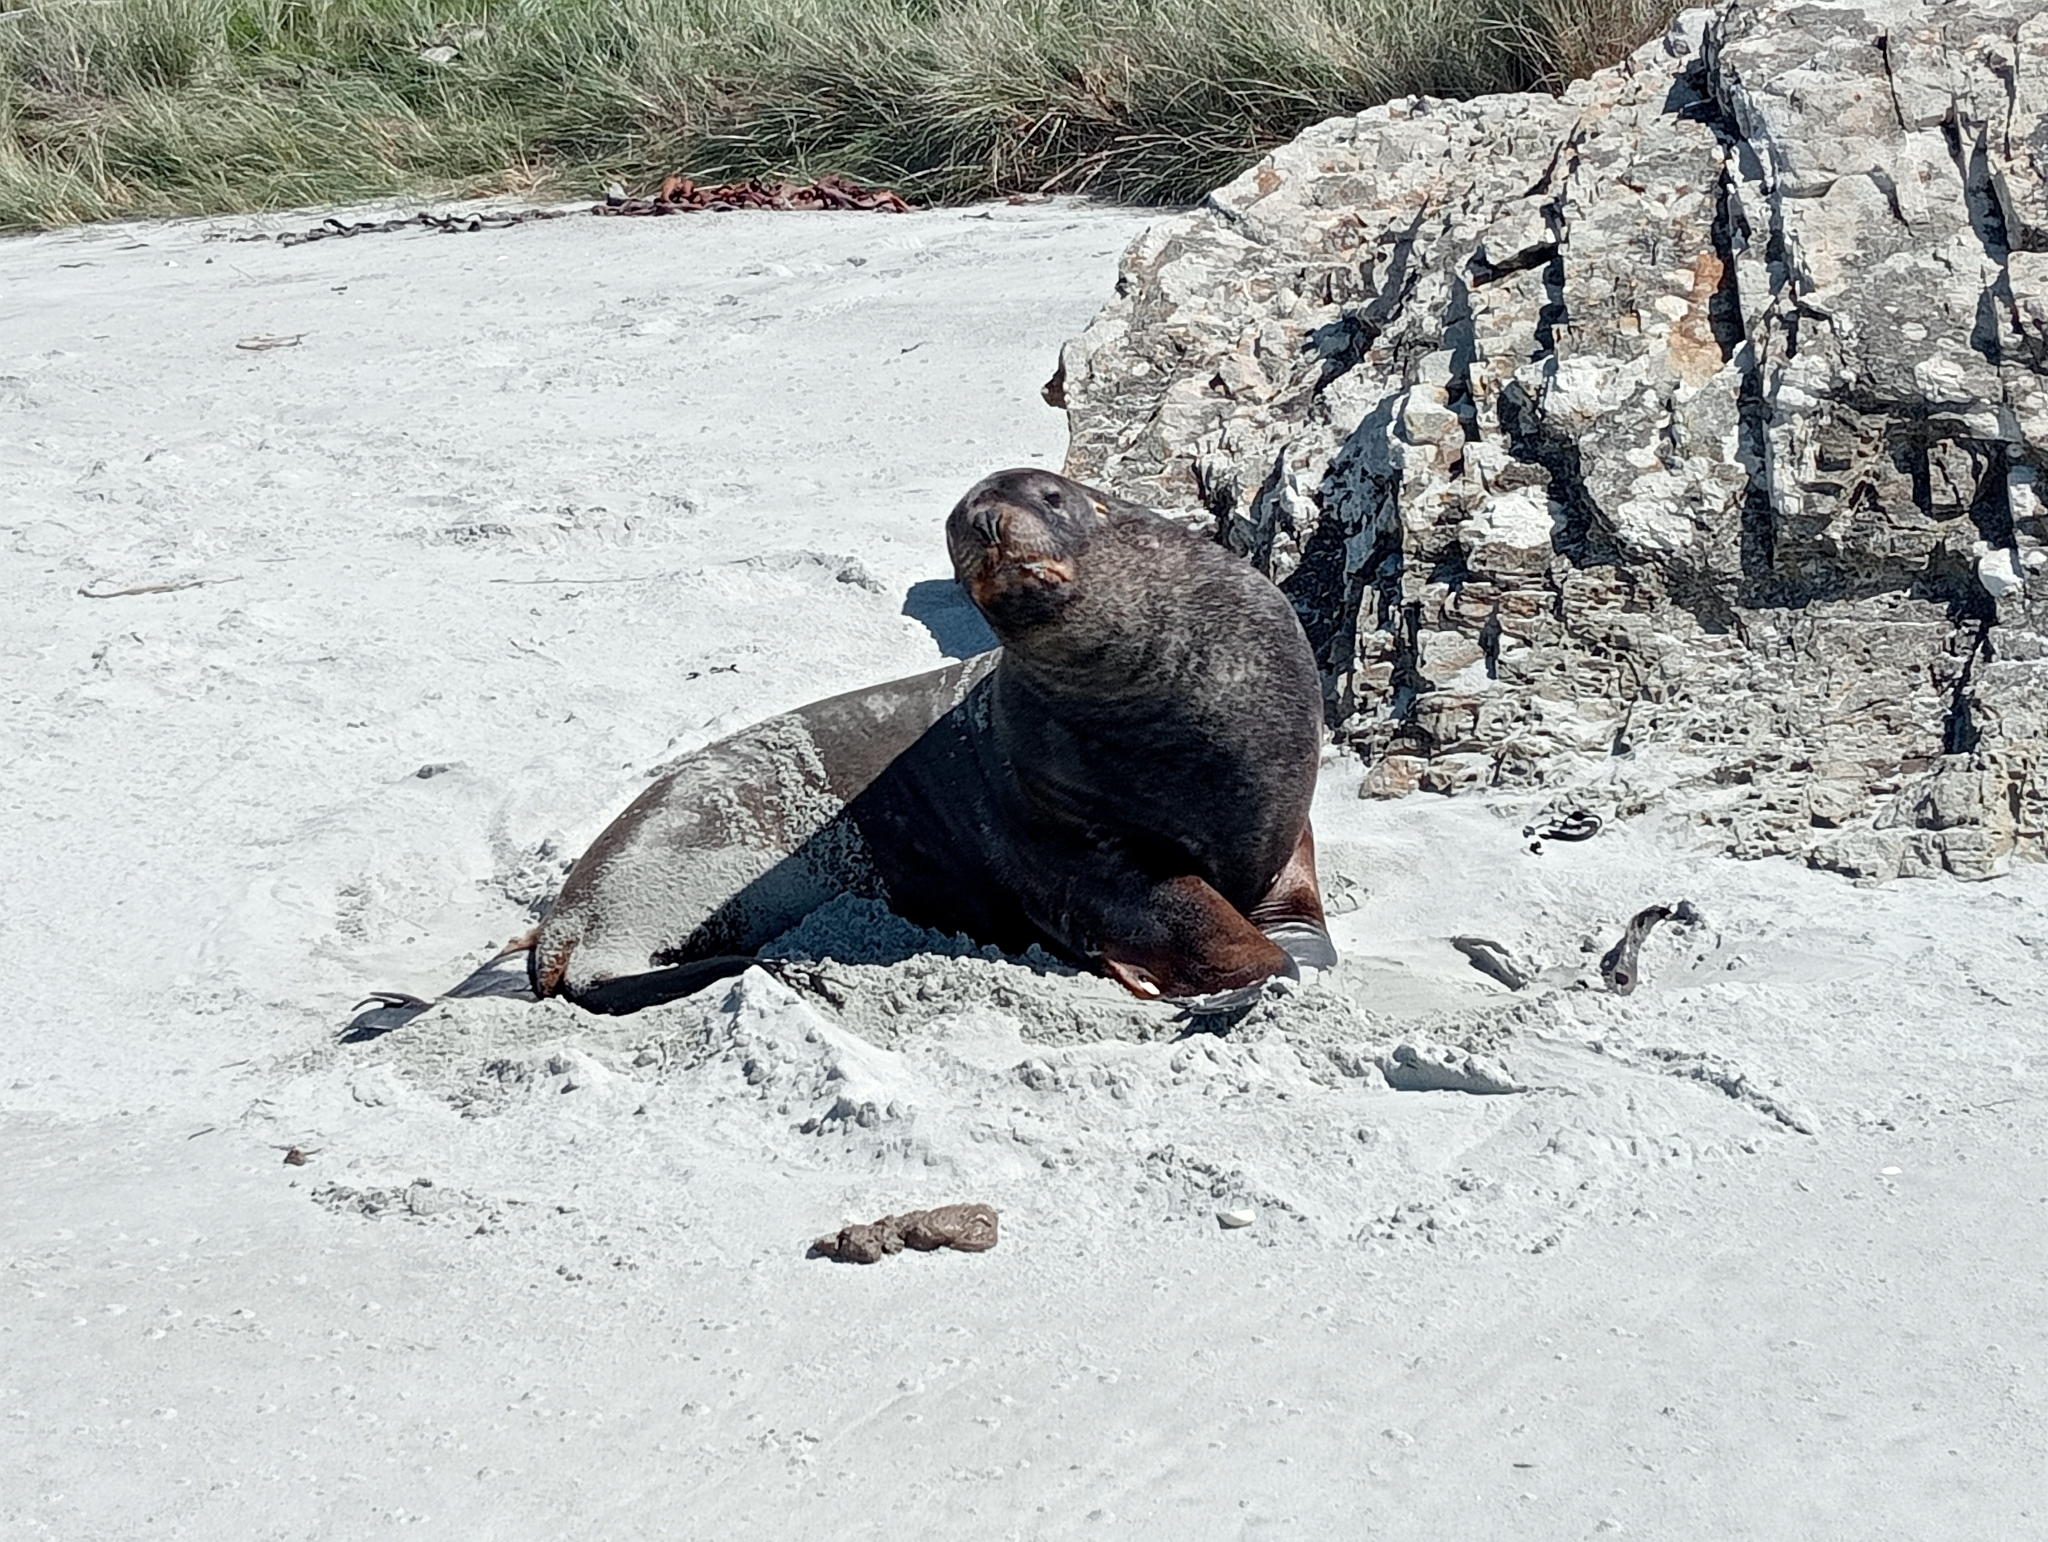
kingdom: Animalia
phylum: Chordata
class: Mammalia
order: Carnivora
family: Otariidae
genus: Phocarctos
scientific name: Phocarctos hookeri
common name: New zealand sea lion
